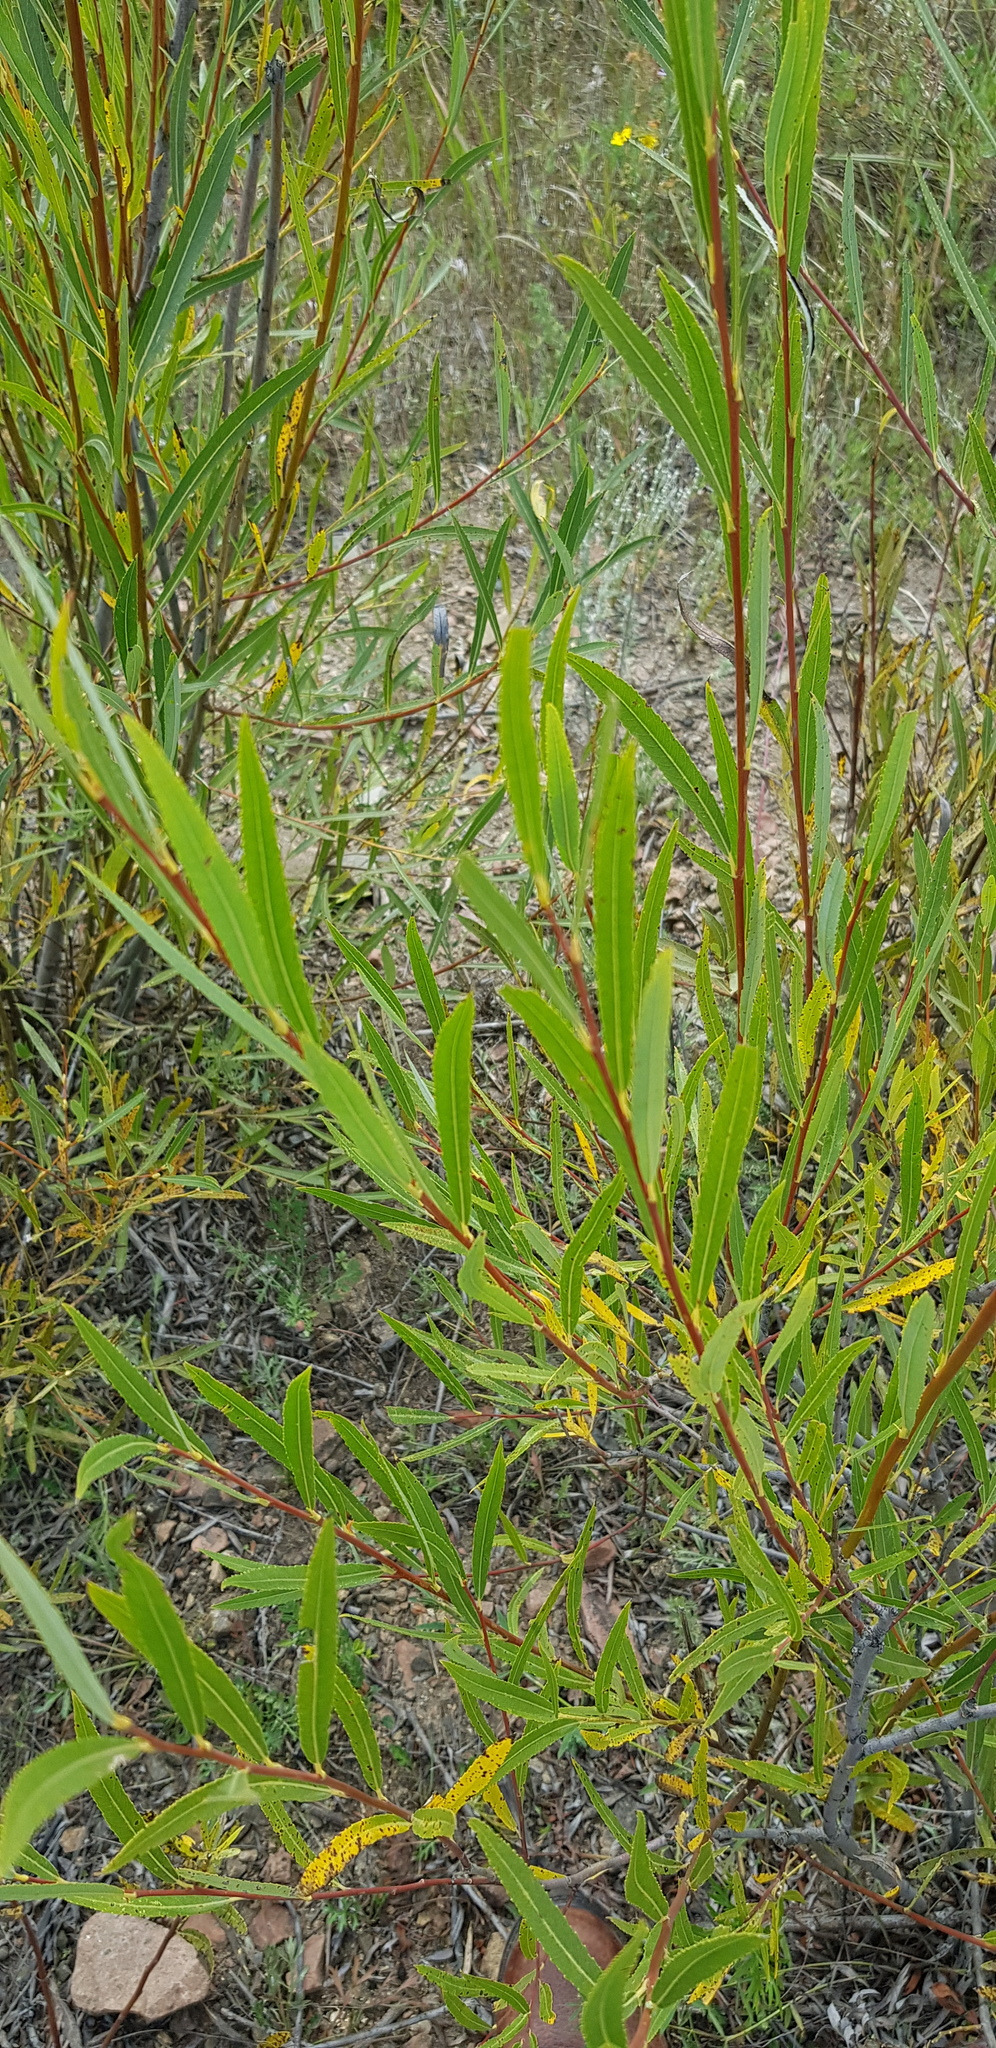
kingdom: Plantae
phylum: Tracheophyta
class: Magnoliopsida
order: Malpighiales
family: Salicaceae
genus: Salix
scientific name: Salix rorida
